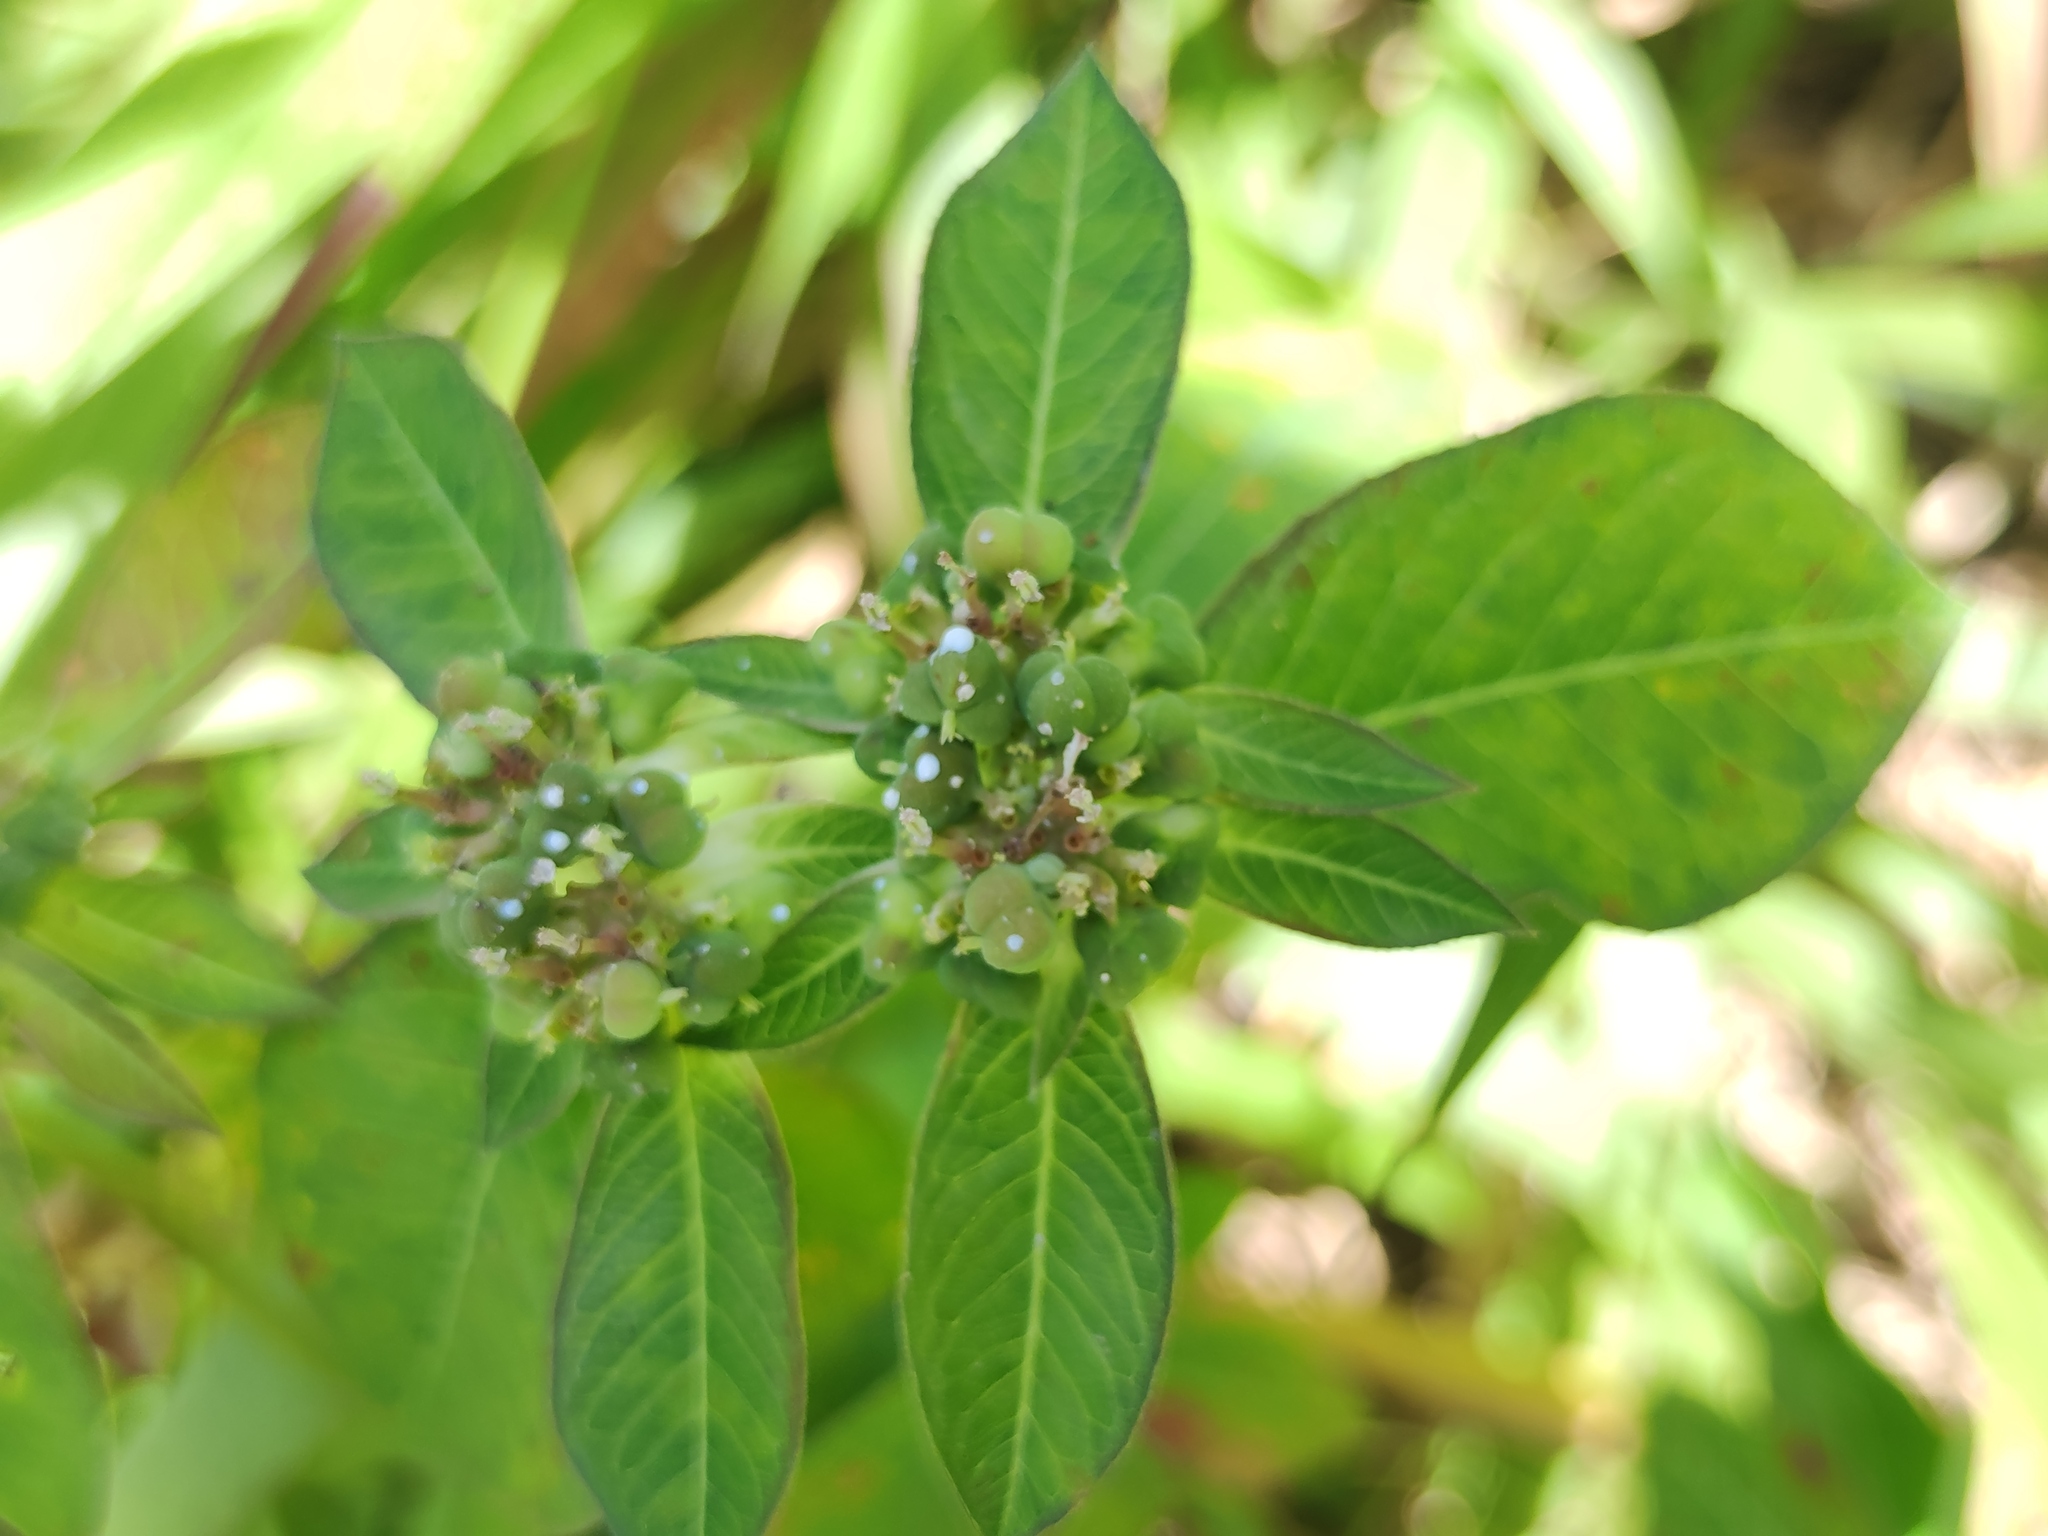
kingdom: Plantae
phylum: Tracheophyta
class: Magnoliopsida
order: Malpighiales
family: Euphorbiaceae
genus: Euphorbia
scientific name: Euphorbia heterophylla
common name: Mexican fireplant
